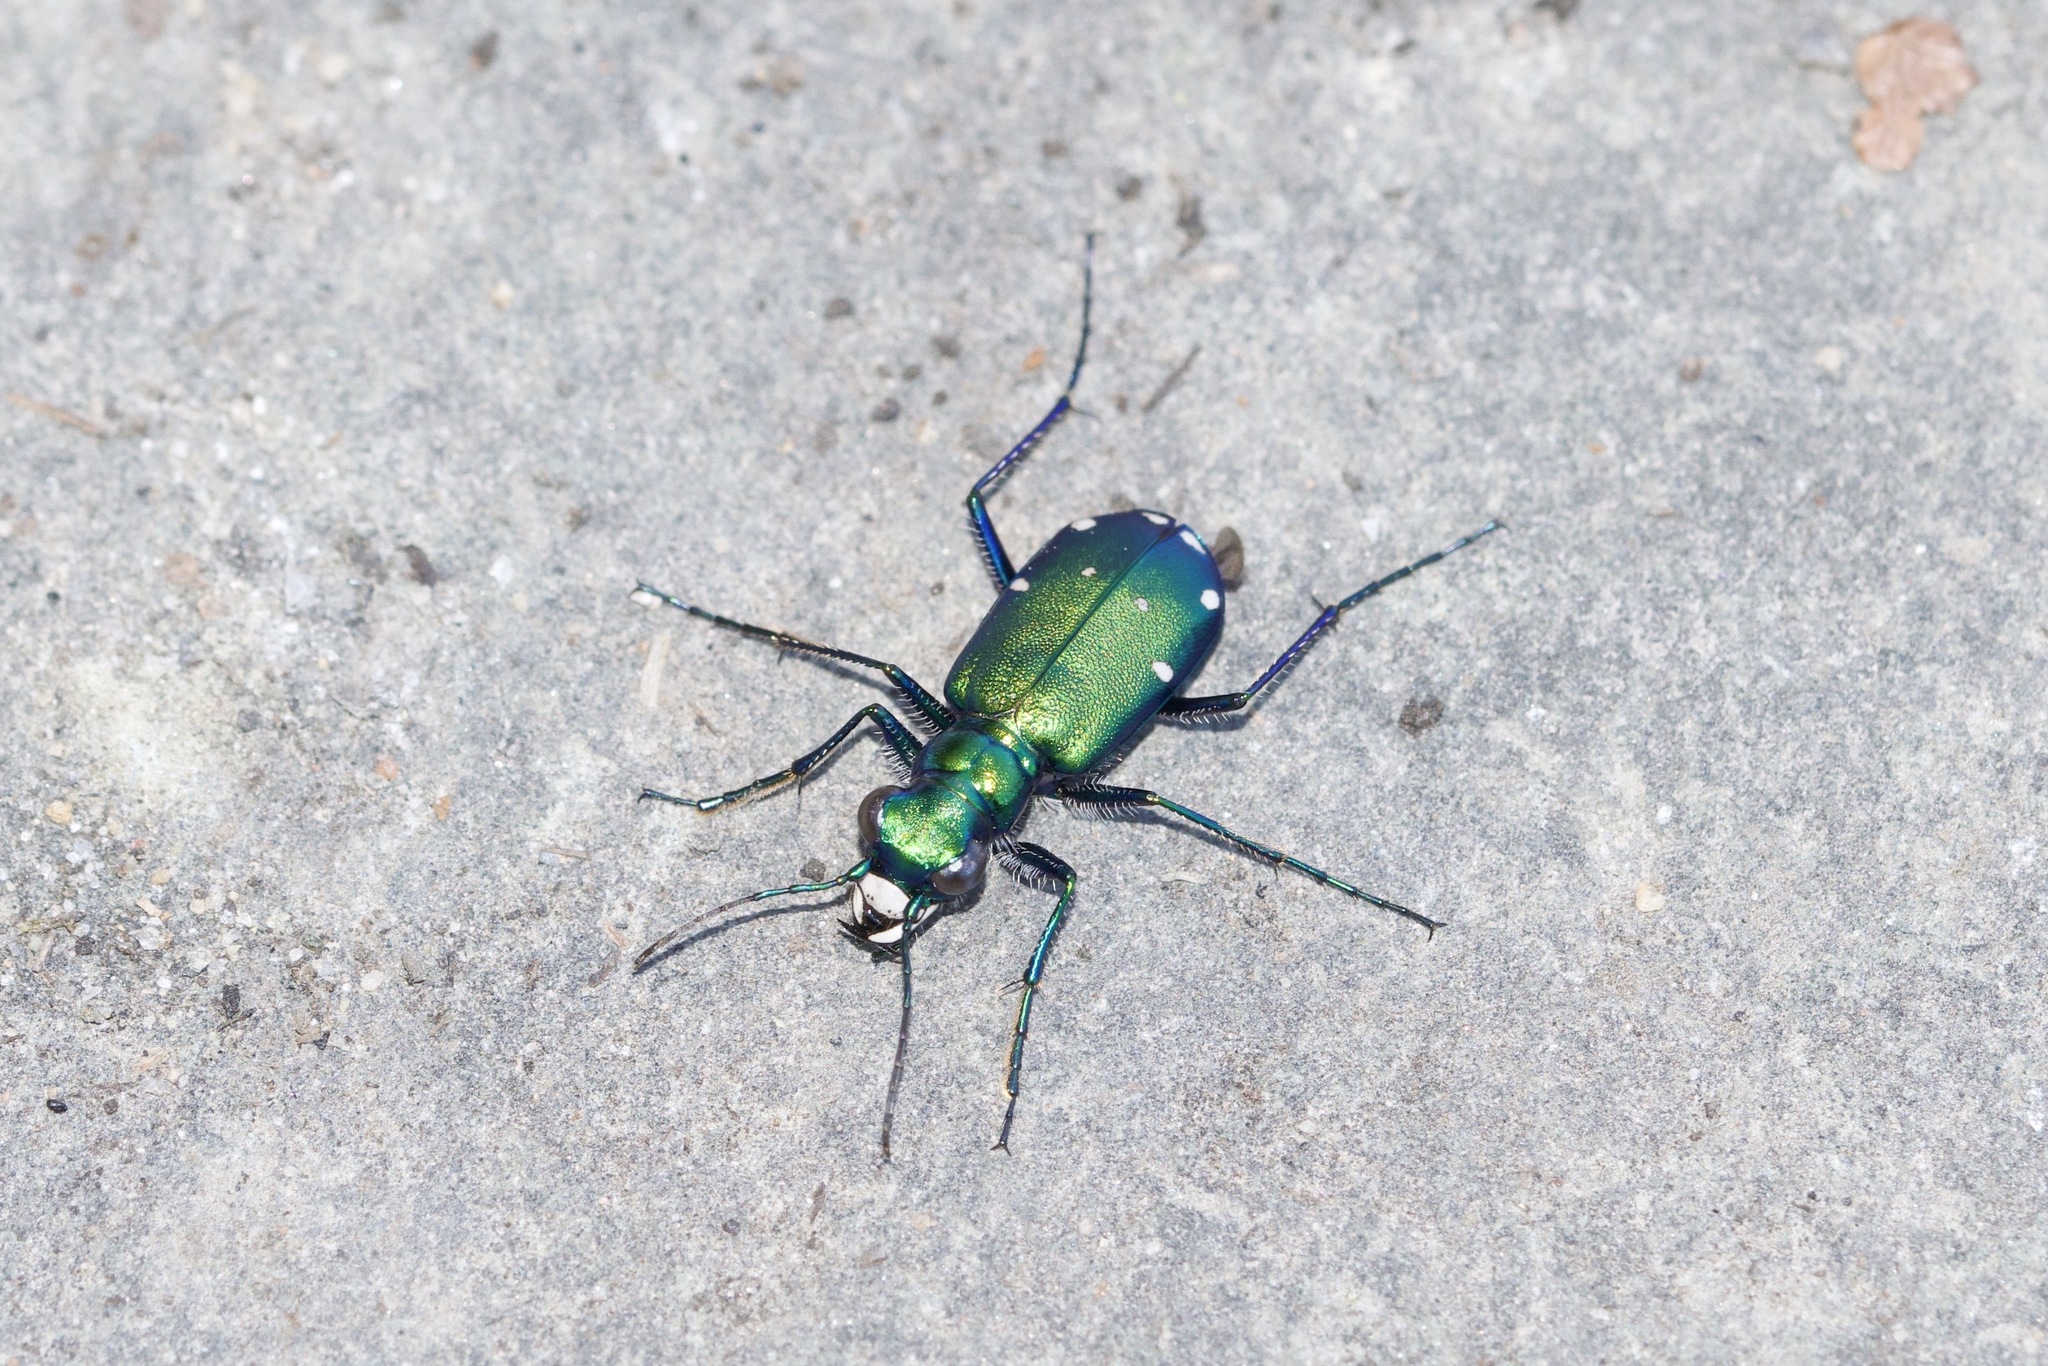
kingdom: Animalia
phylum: Arthropoda
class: Insecta
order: Coleoptera
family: Carabidae
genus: Cicindela
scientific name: Cicindela sexguttata
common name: Six-spotted tiger beetle
